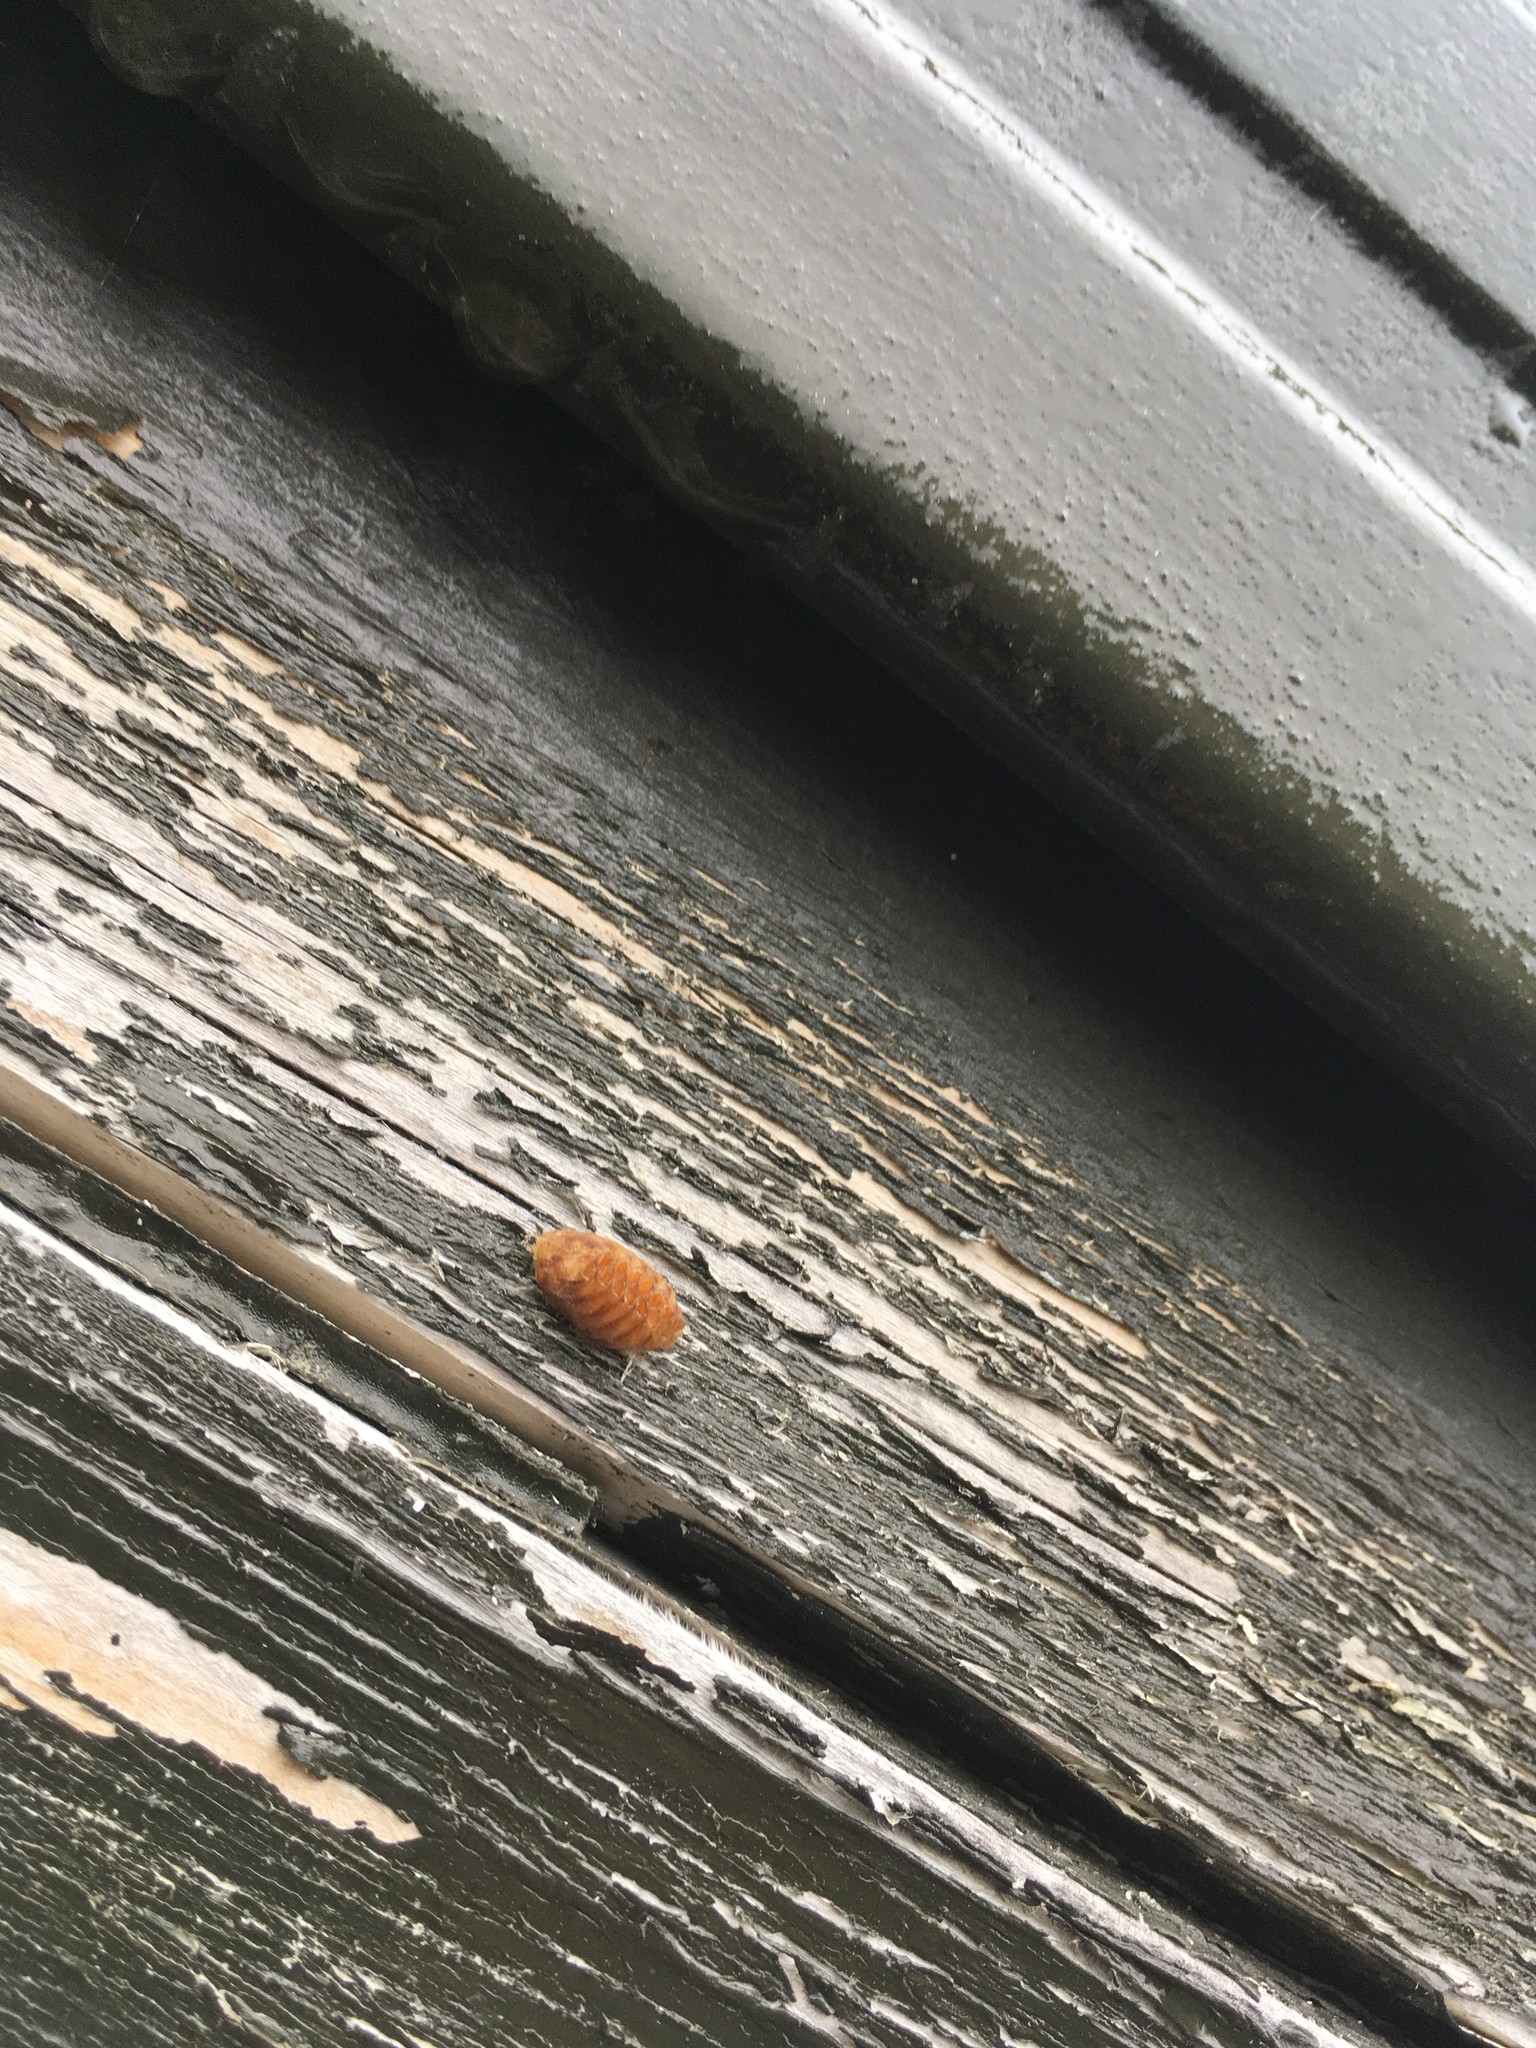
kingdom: Animalia
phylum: Arthropoda
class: Insecta
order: Mantodea
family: Mantidae
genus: Orthodera
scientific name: Orthodera novaezealandiae
